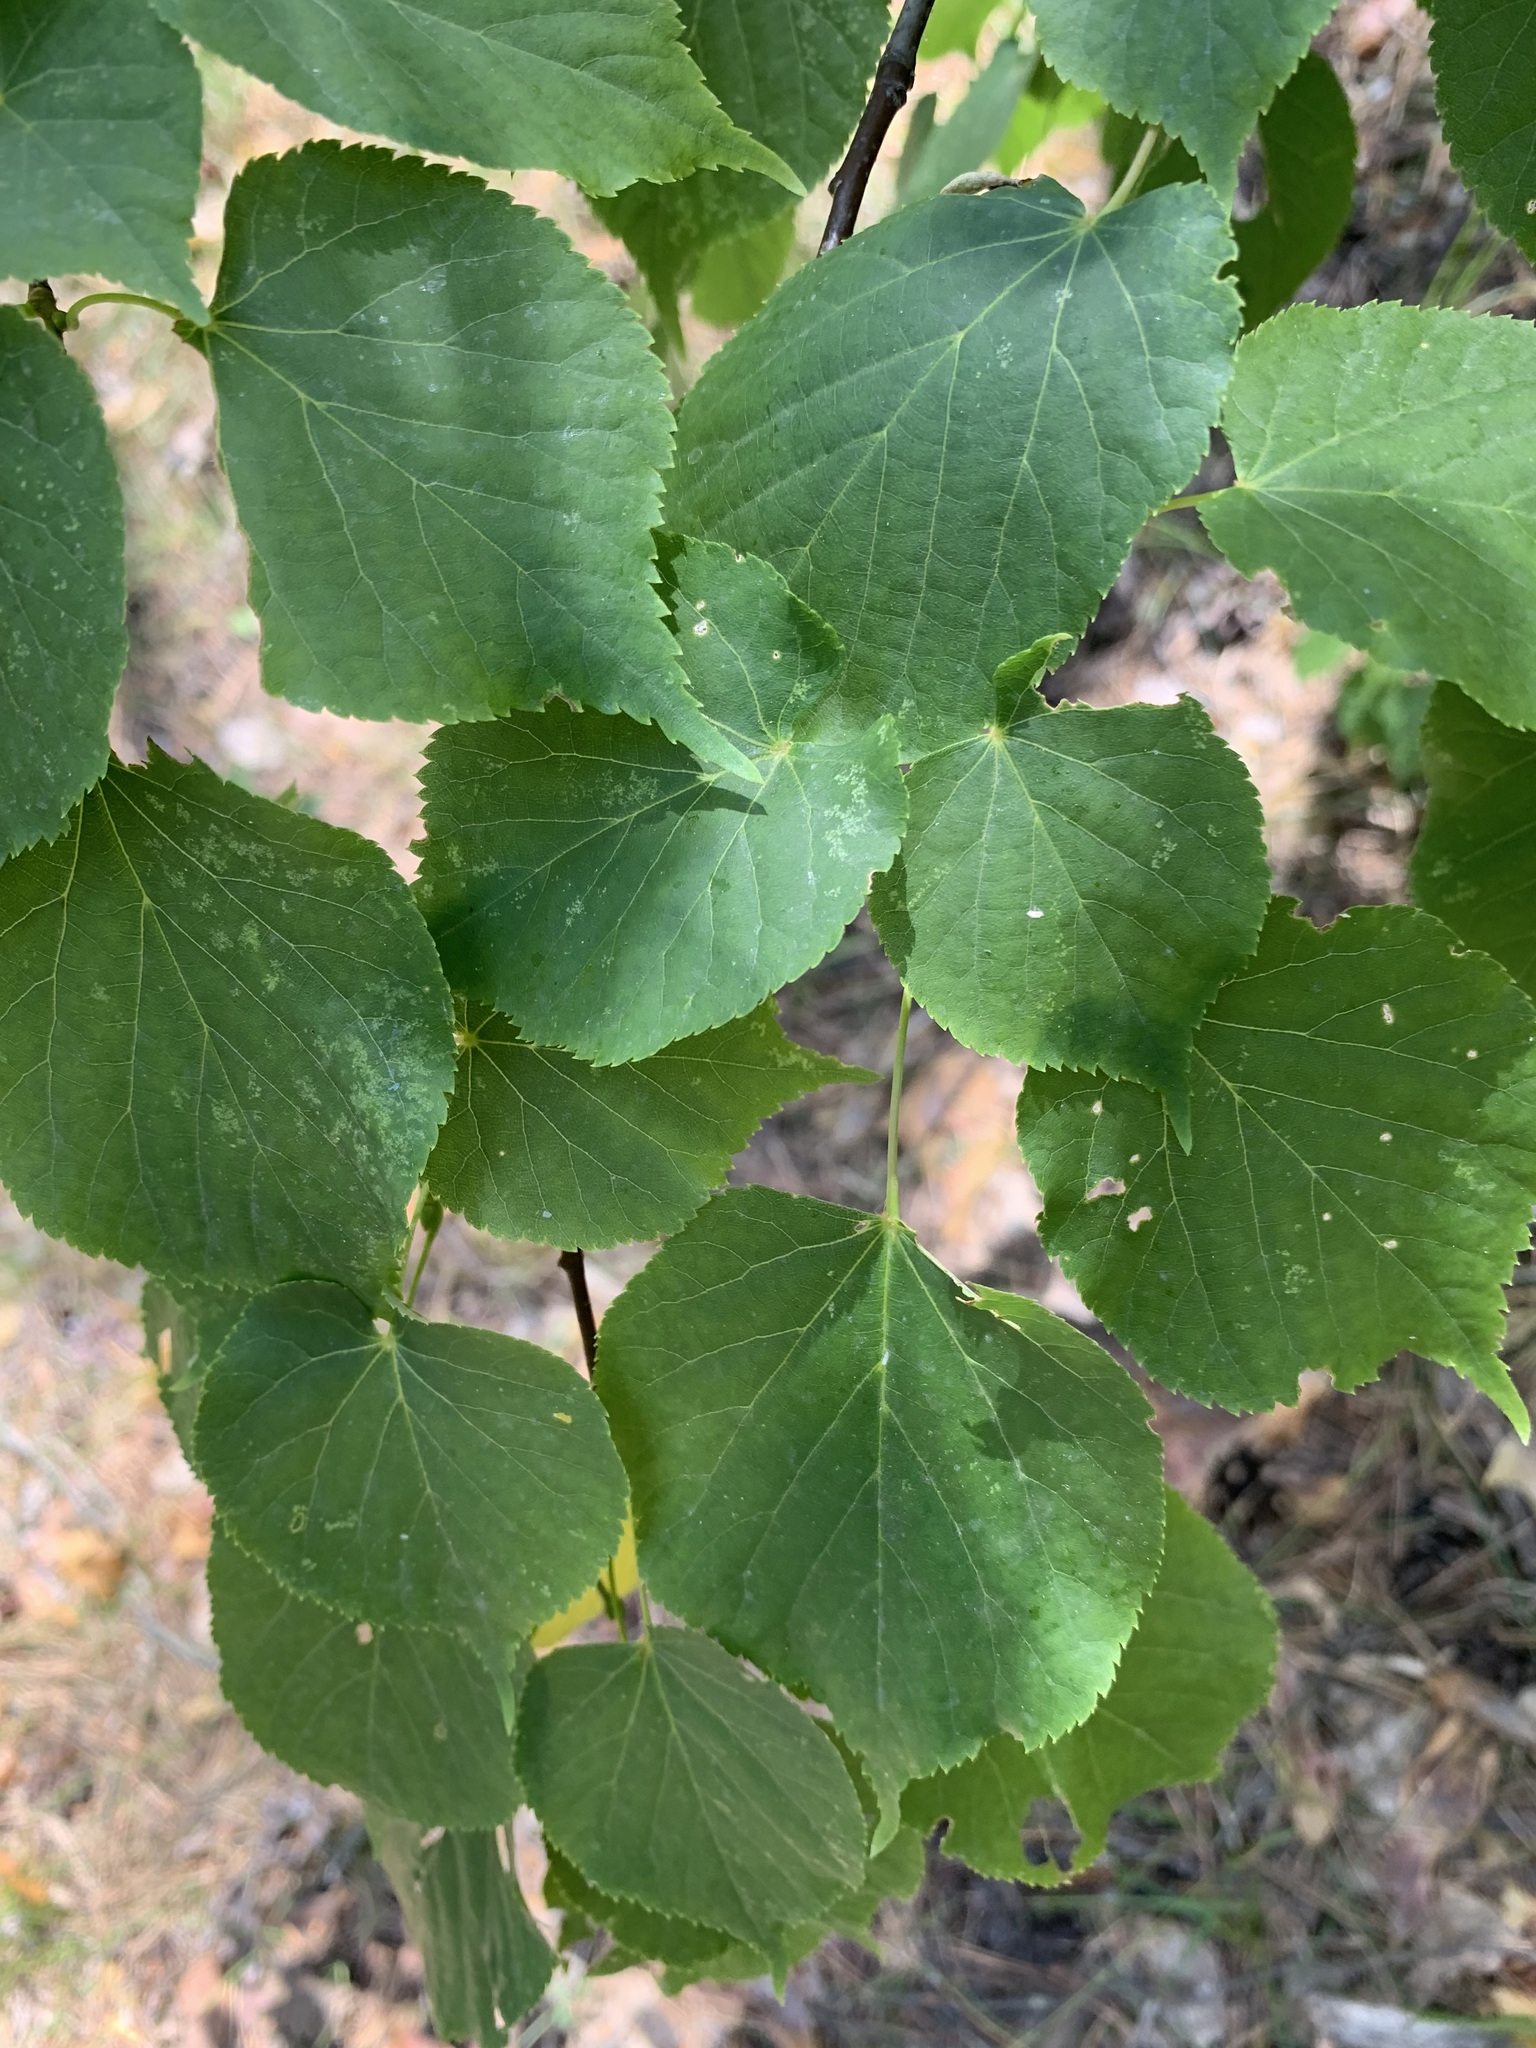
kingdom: Plantae
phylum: Tracheophyta
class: Magnoliopsida
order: Malvales
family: Malvaceae
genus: Tilia
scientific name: Tilia cordata
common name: Small-leaved lime
